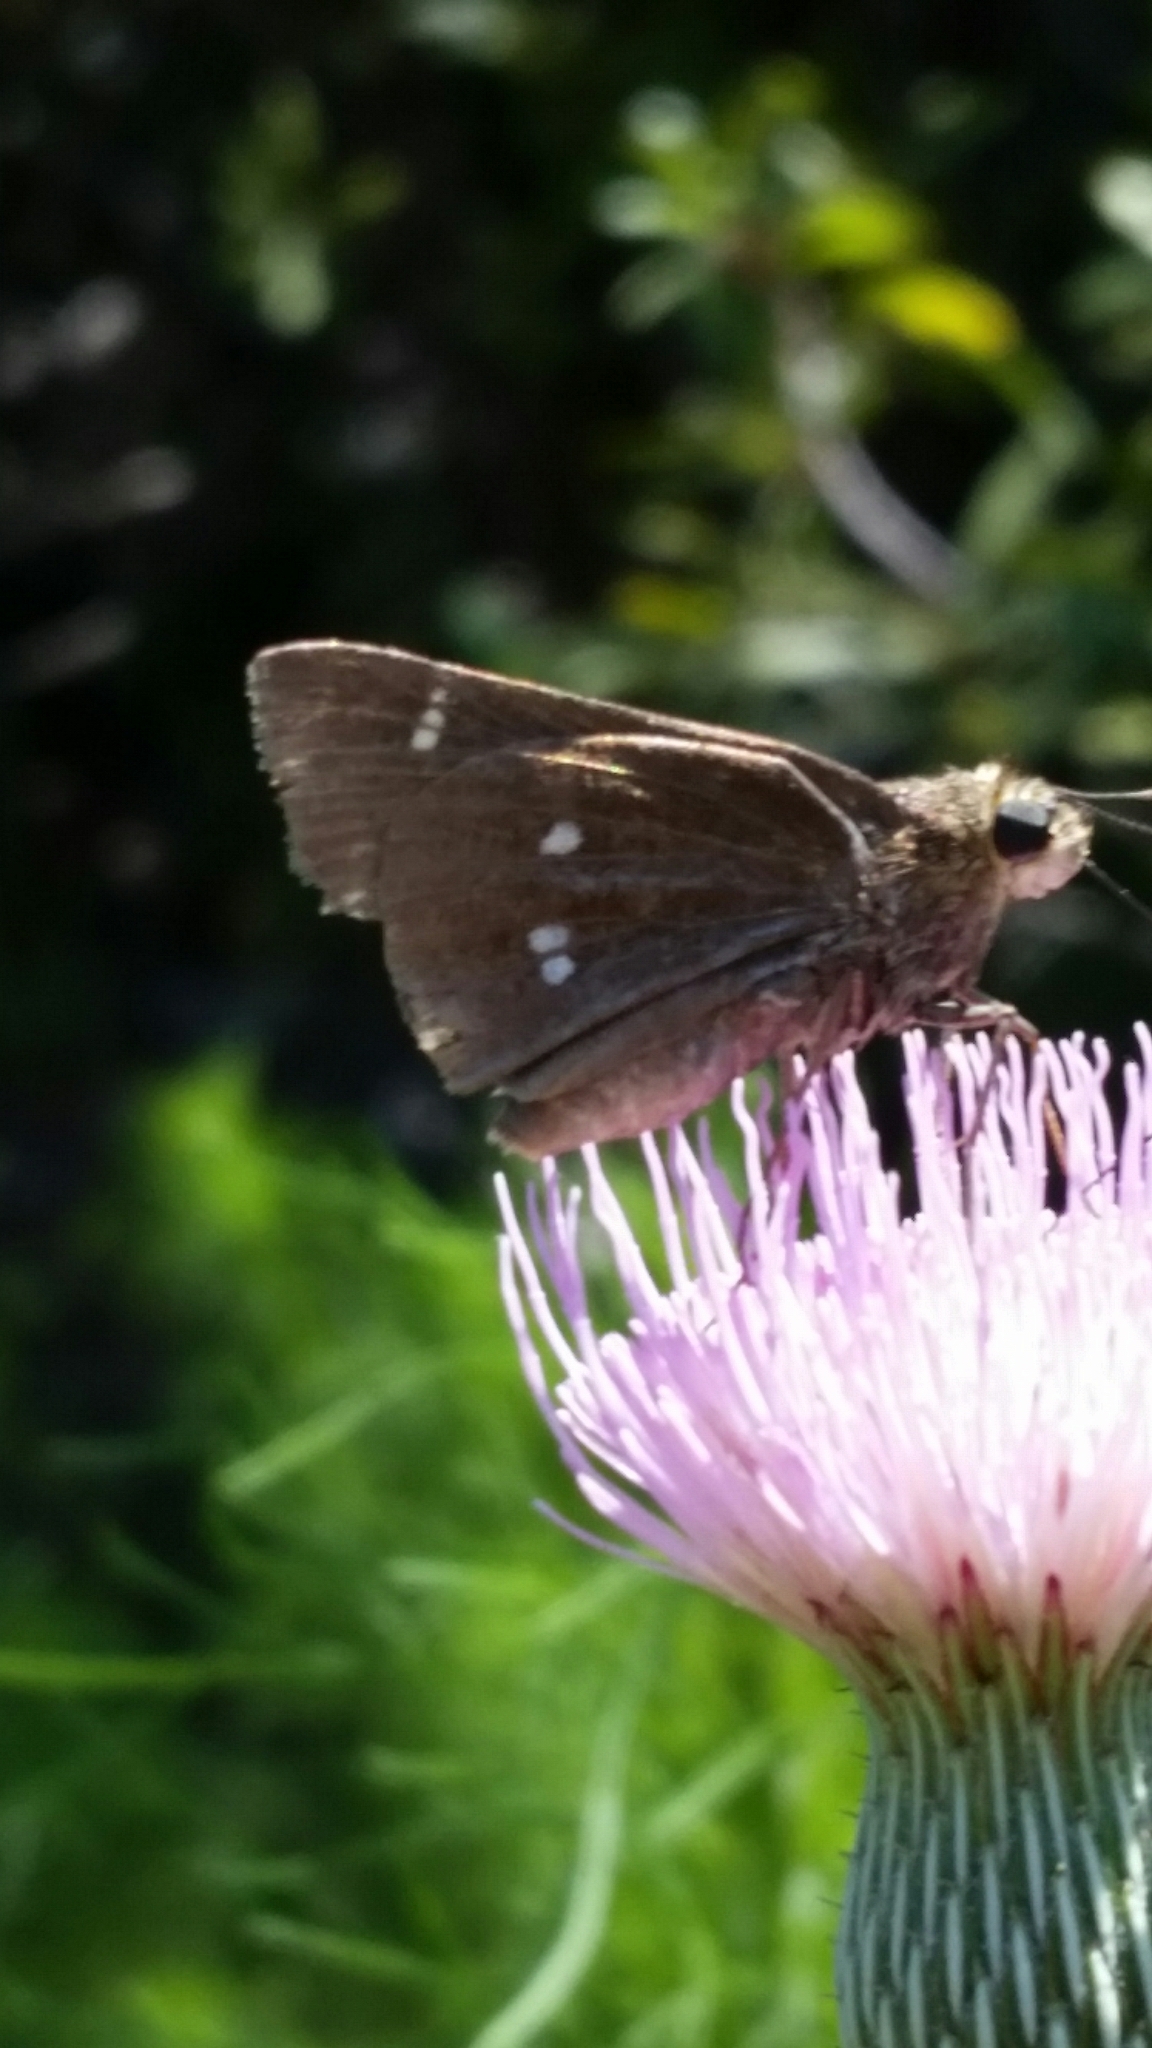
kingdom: Animalia
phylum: Arthropoda
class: Insecta
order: Lepidoptera
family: Hesperiidae
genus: Oligoria
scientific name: Oligoria maculata
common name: Twin-spot skipper
